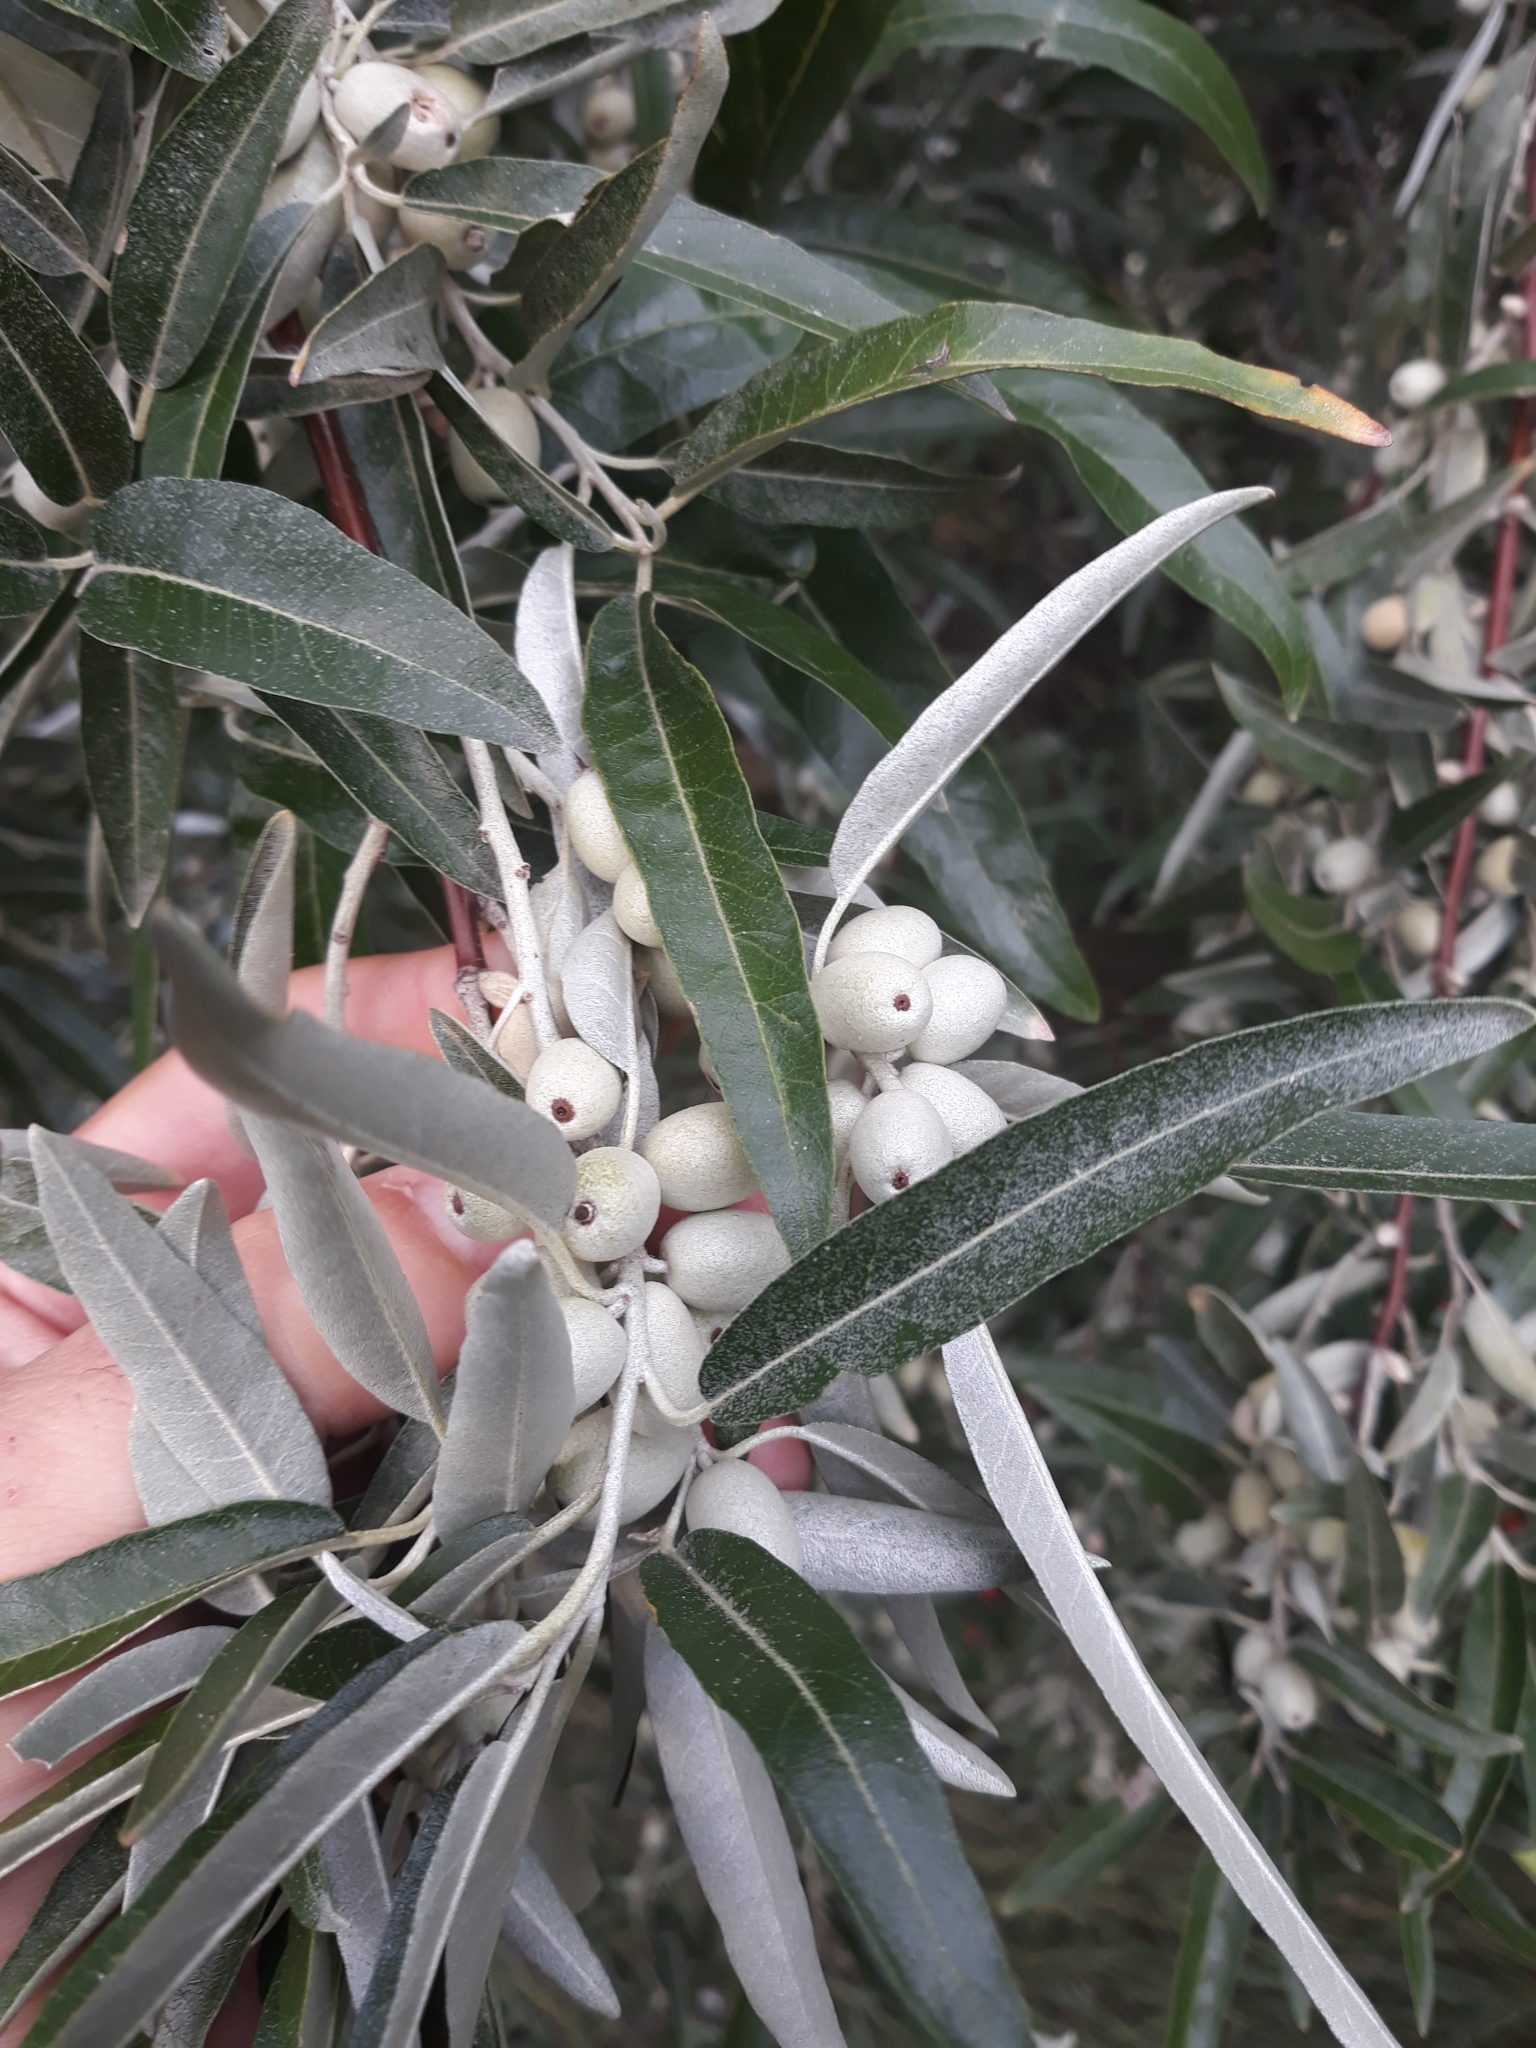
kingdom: Plantae
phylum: Tracheophyta
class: Magnoliopsida
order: Rosales
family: Elaeagnaceae
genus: Elaeagnus
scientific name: Elaeagnus angustifolia
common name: Russian olive
